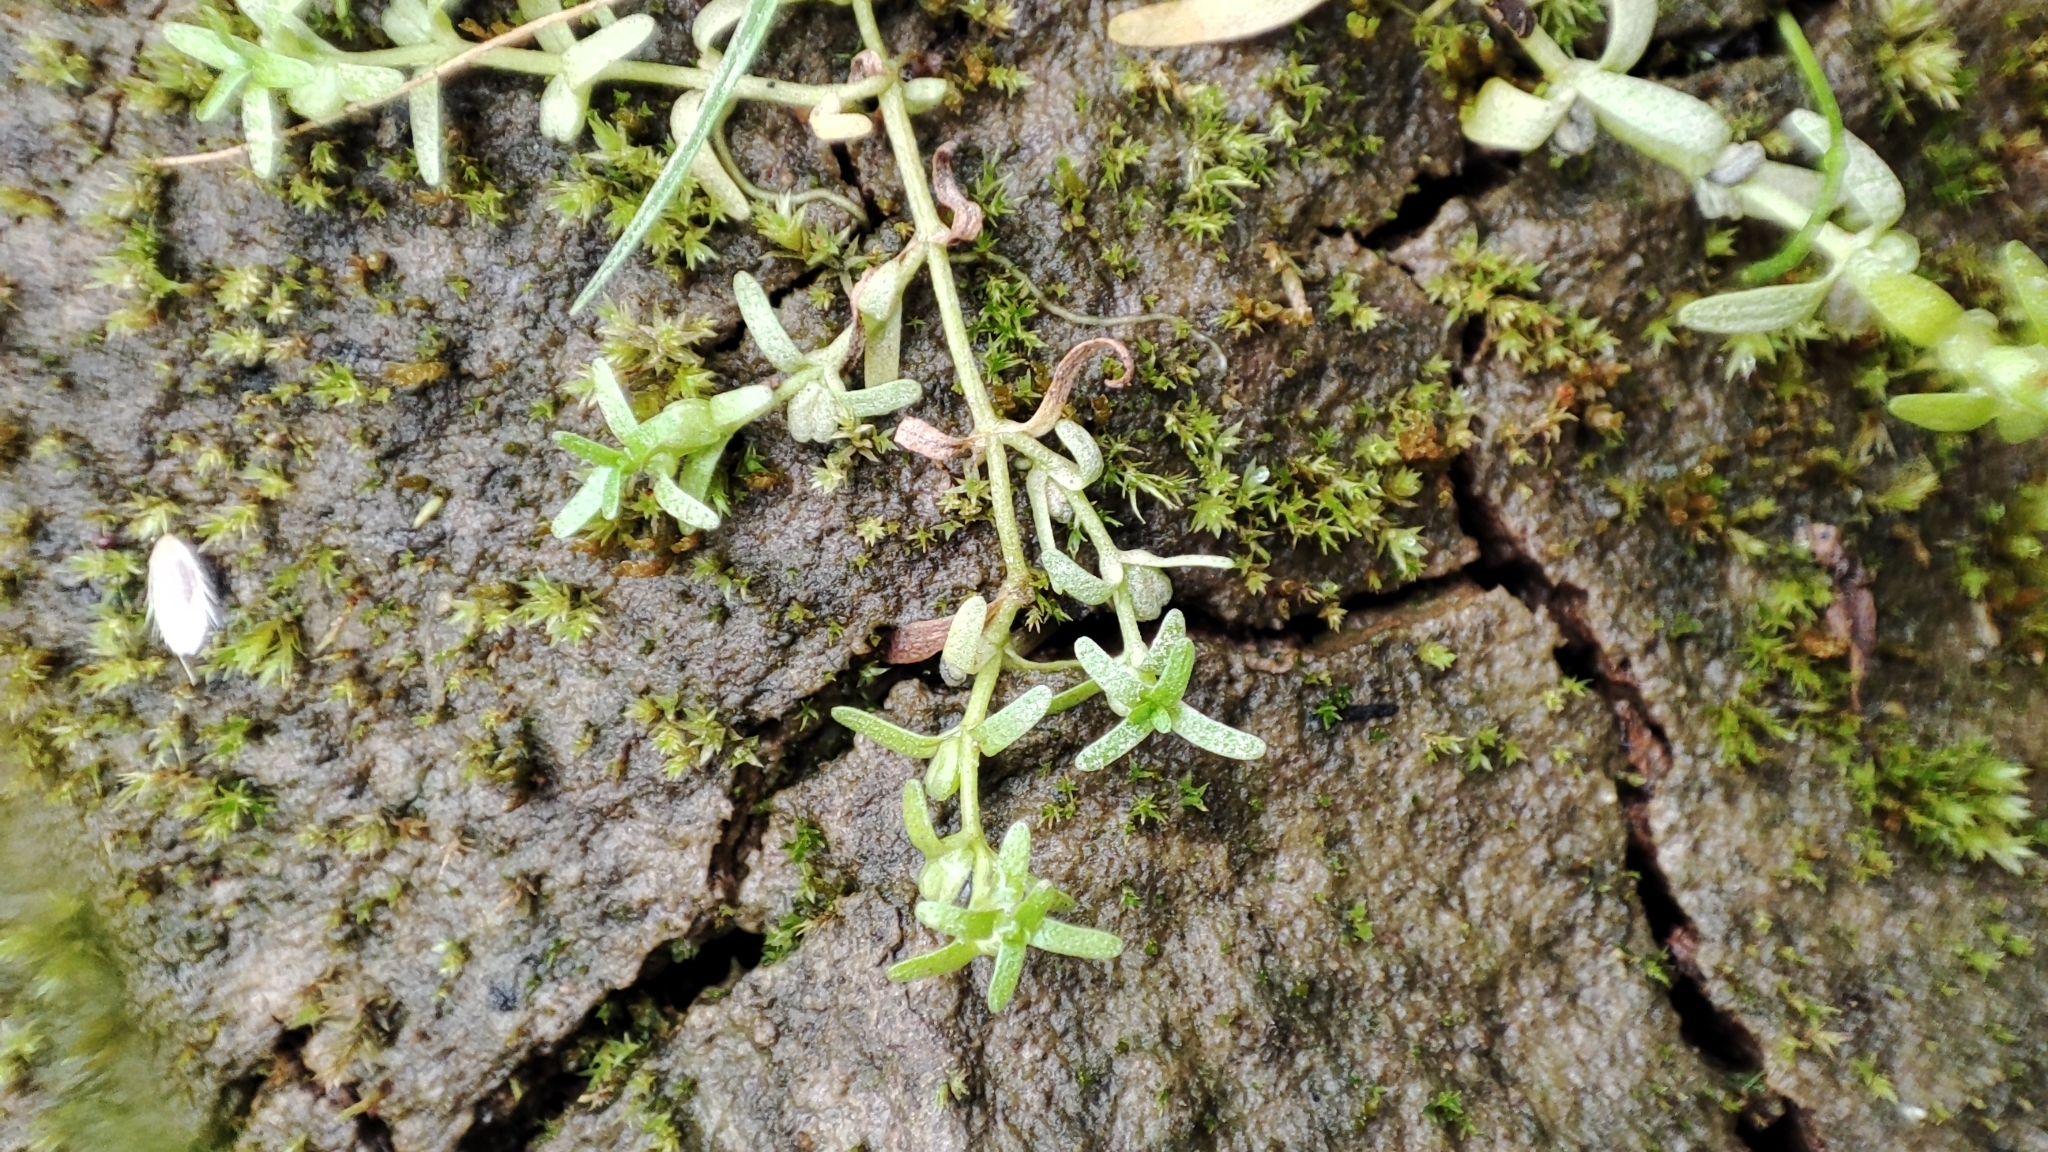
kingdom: Plantae
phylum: Tracheophyta
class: Magnoliopsida
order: Lamiales
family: Plantaginaceae
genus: Callitriche
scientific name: Callitriche palustris
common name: Spring water-starwort
